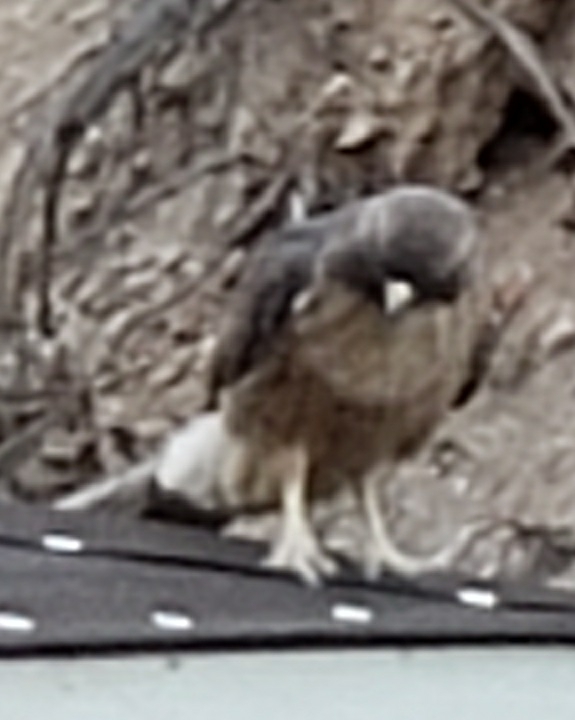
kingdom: Animalia
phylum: Chordata
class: Aves
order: Accipitriformes
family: Accipitridae
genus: Buteo
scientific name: Buteo jamaicensis
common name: Red-tailed hawk
